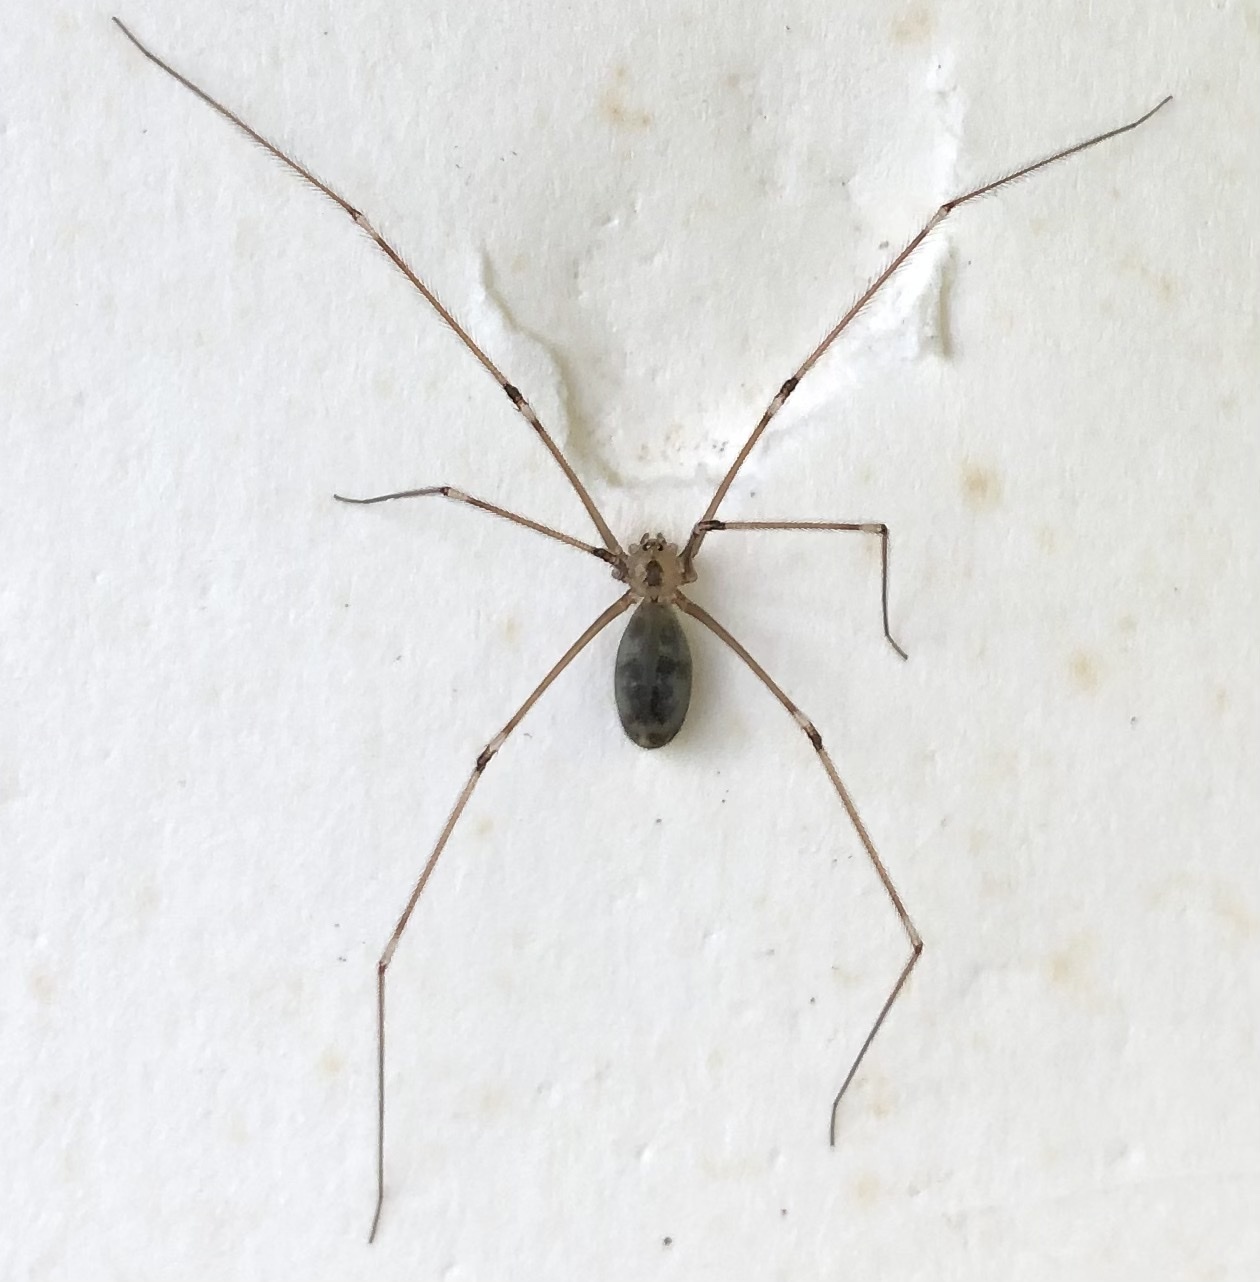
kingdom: Animalia
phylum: Arthropoda
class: Arachnida
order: Araneae
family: Pholcidae
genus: Pholcus
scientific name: Pholcus phalangioides
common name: Longbodied cellar spider
